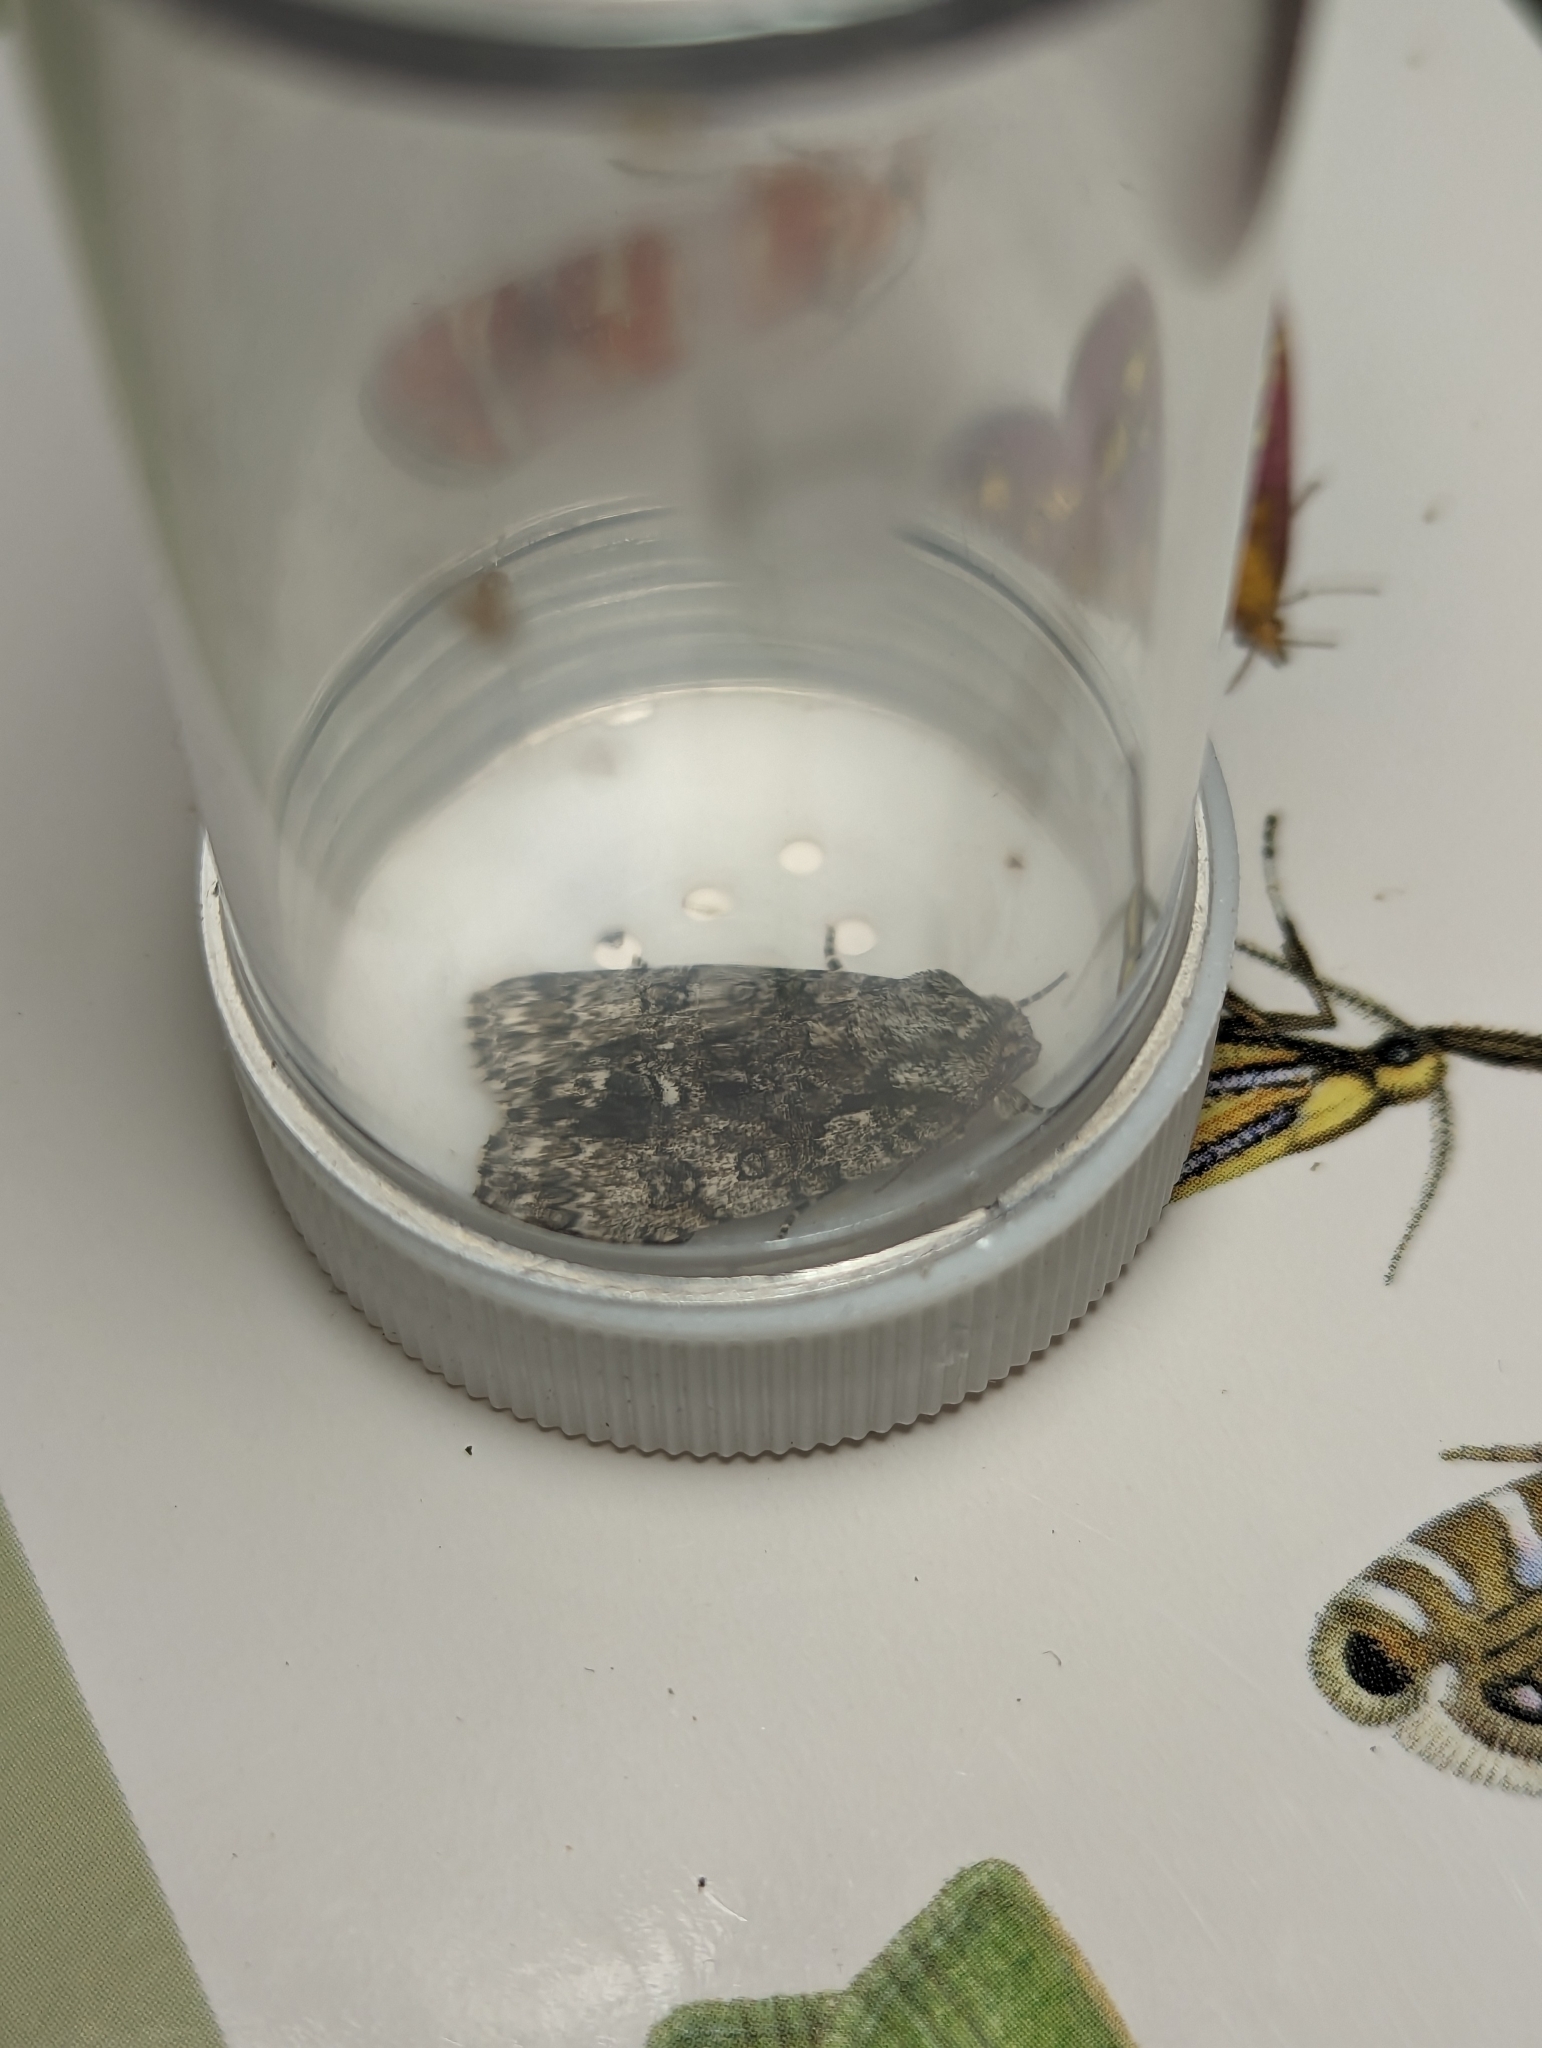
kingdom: Animalia
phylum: Arthropoda
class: Insecta
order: Lepidoptera
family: Noctuidae
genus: Acronicta
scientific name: Acronicta rumicis
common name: Knot grass
